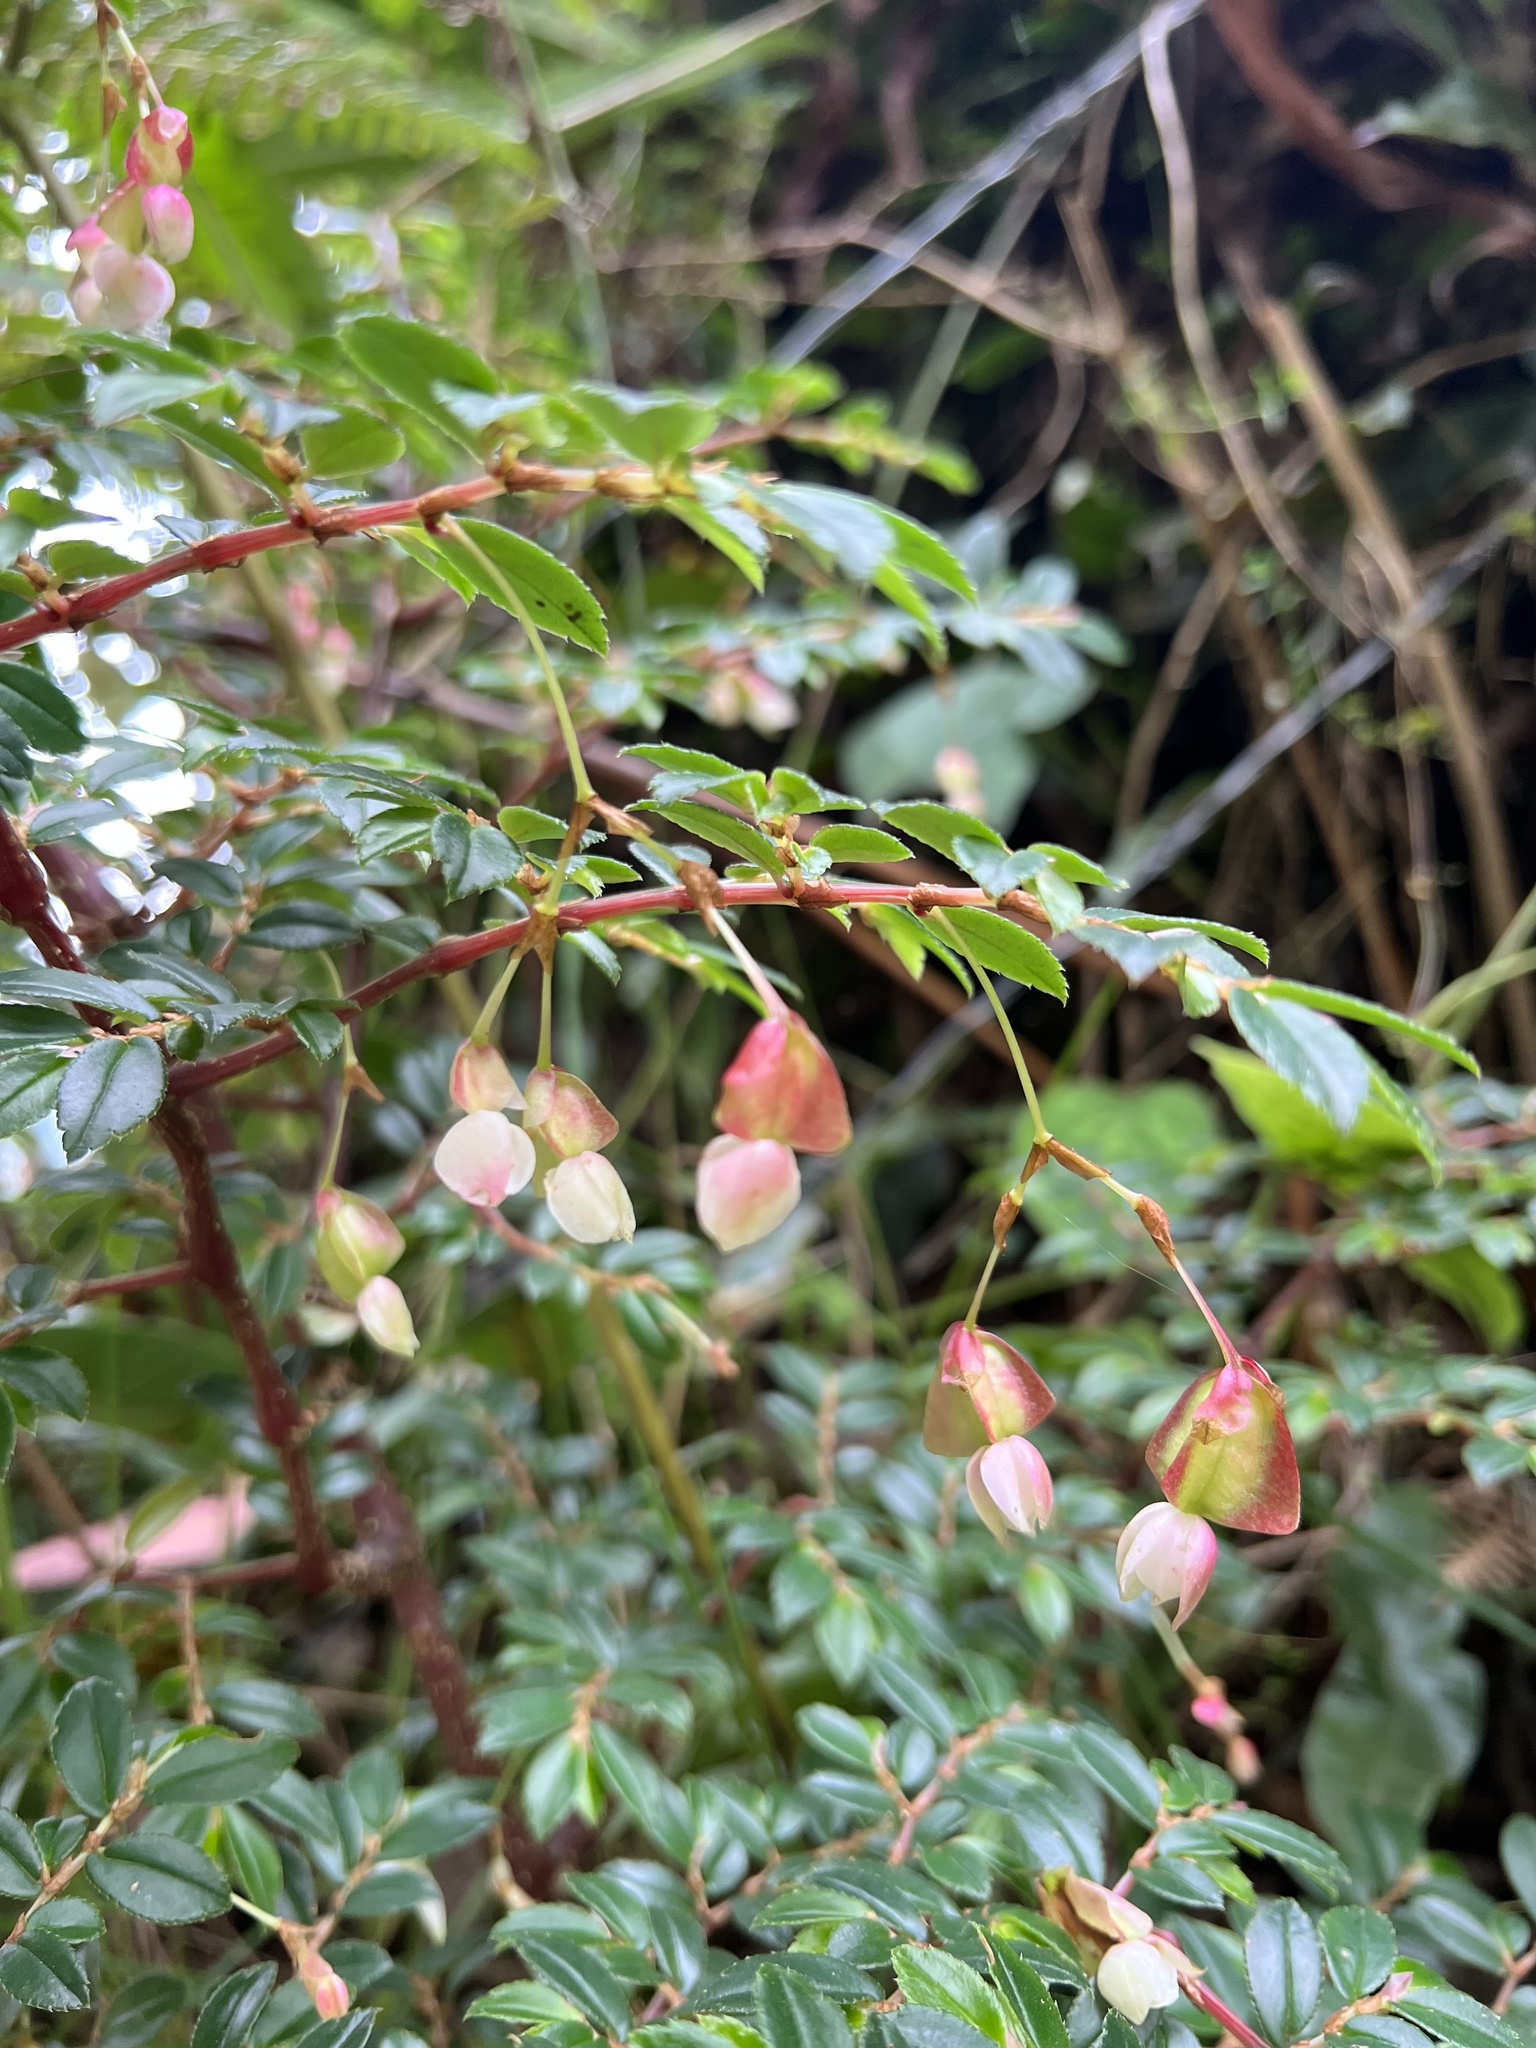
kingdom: Plantae
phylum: Tracheophyta
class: Magnoliopsida
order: Cucurbitales
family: Begoniaceae
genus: Begonia
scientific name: Begonia foliosa
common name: Fern begonia
